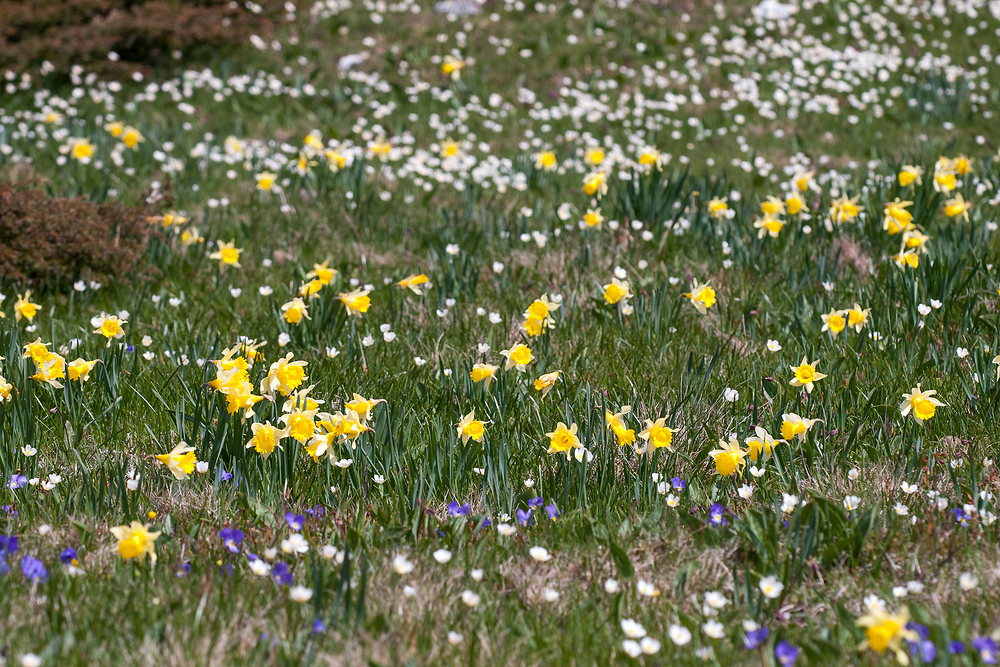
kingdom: Plantae
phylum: Tracheophyta
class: Liliopsida
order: Asparagales
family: Amaryllidaceae
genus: Narcissus
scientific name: Narcissus pseudonarcissus
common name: Daffodil
